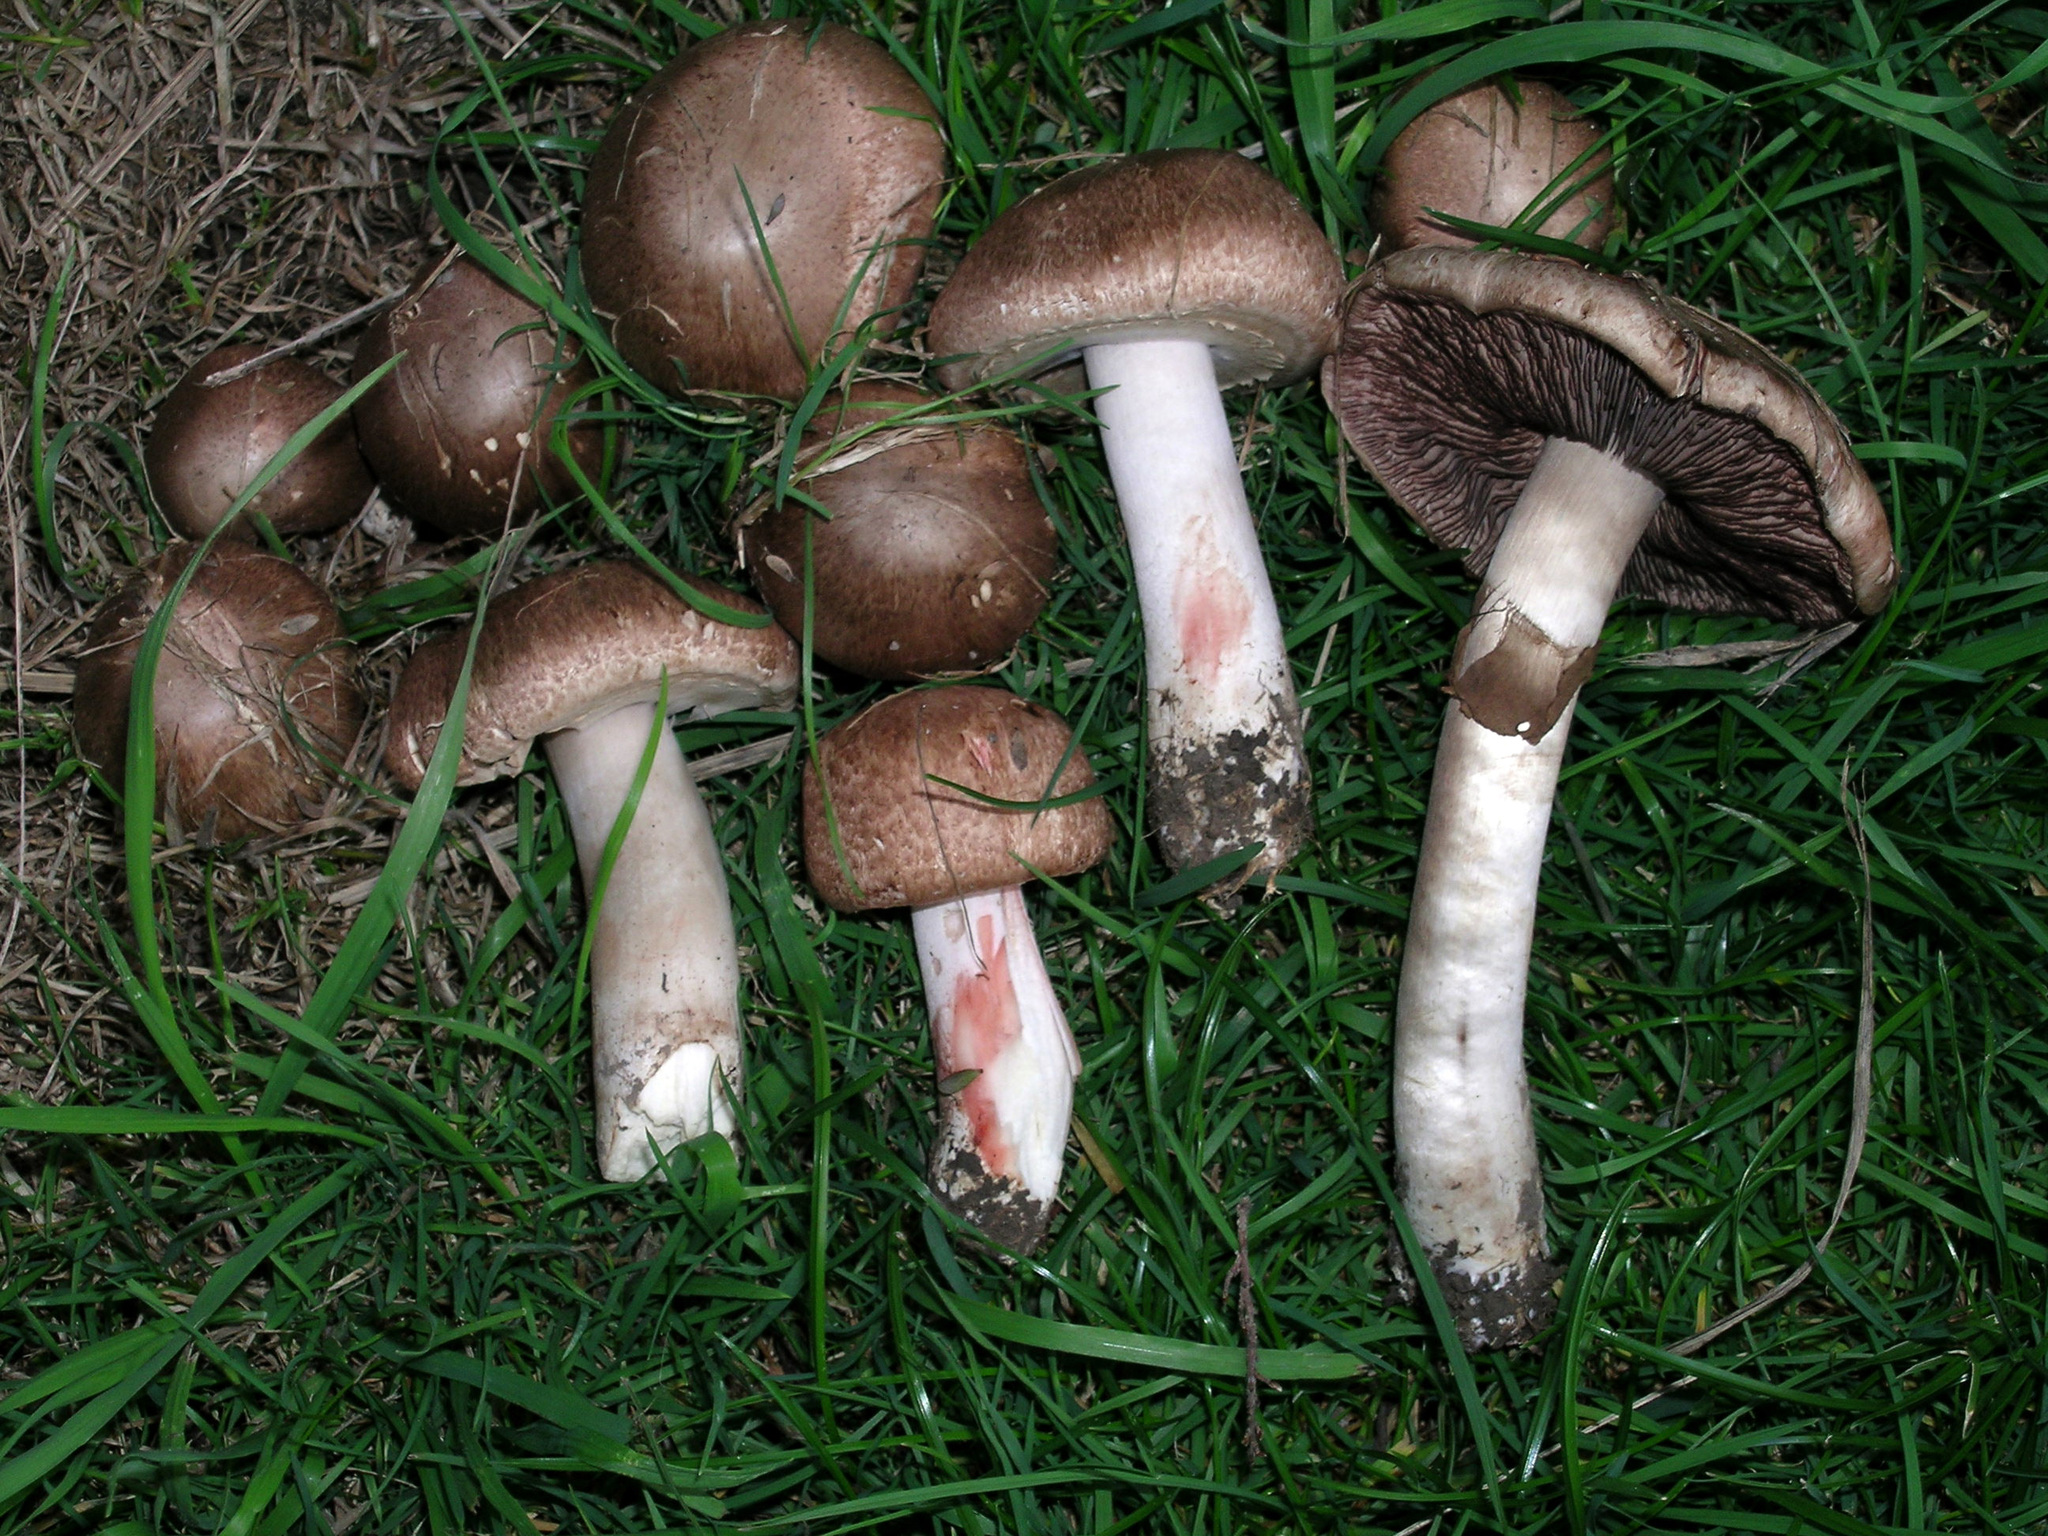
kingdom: Fungi
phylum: Basidiomycota
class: Agaricomycetes
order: Agaricales
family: Agaricaceae
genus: Agaricus
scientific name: Agaricus sylvaticus
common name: Blushing wood mushroom
